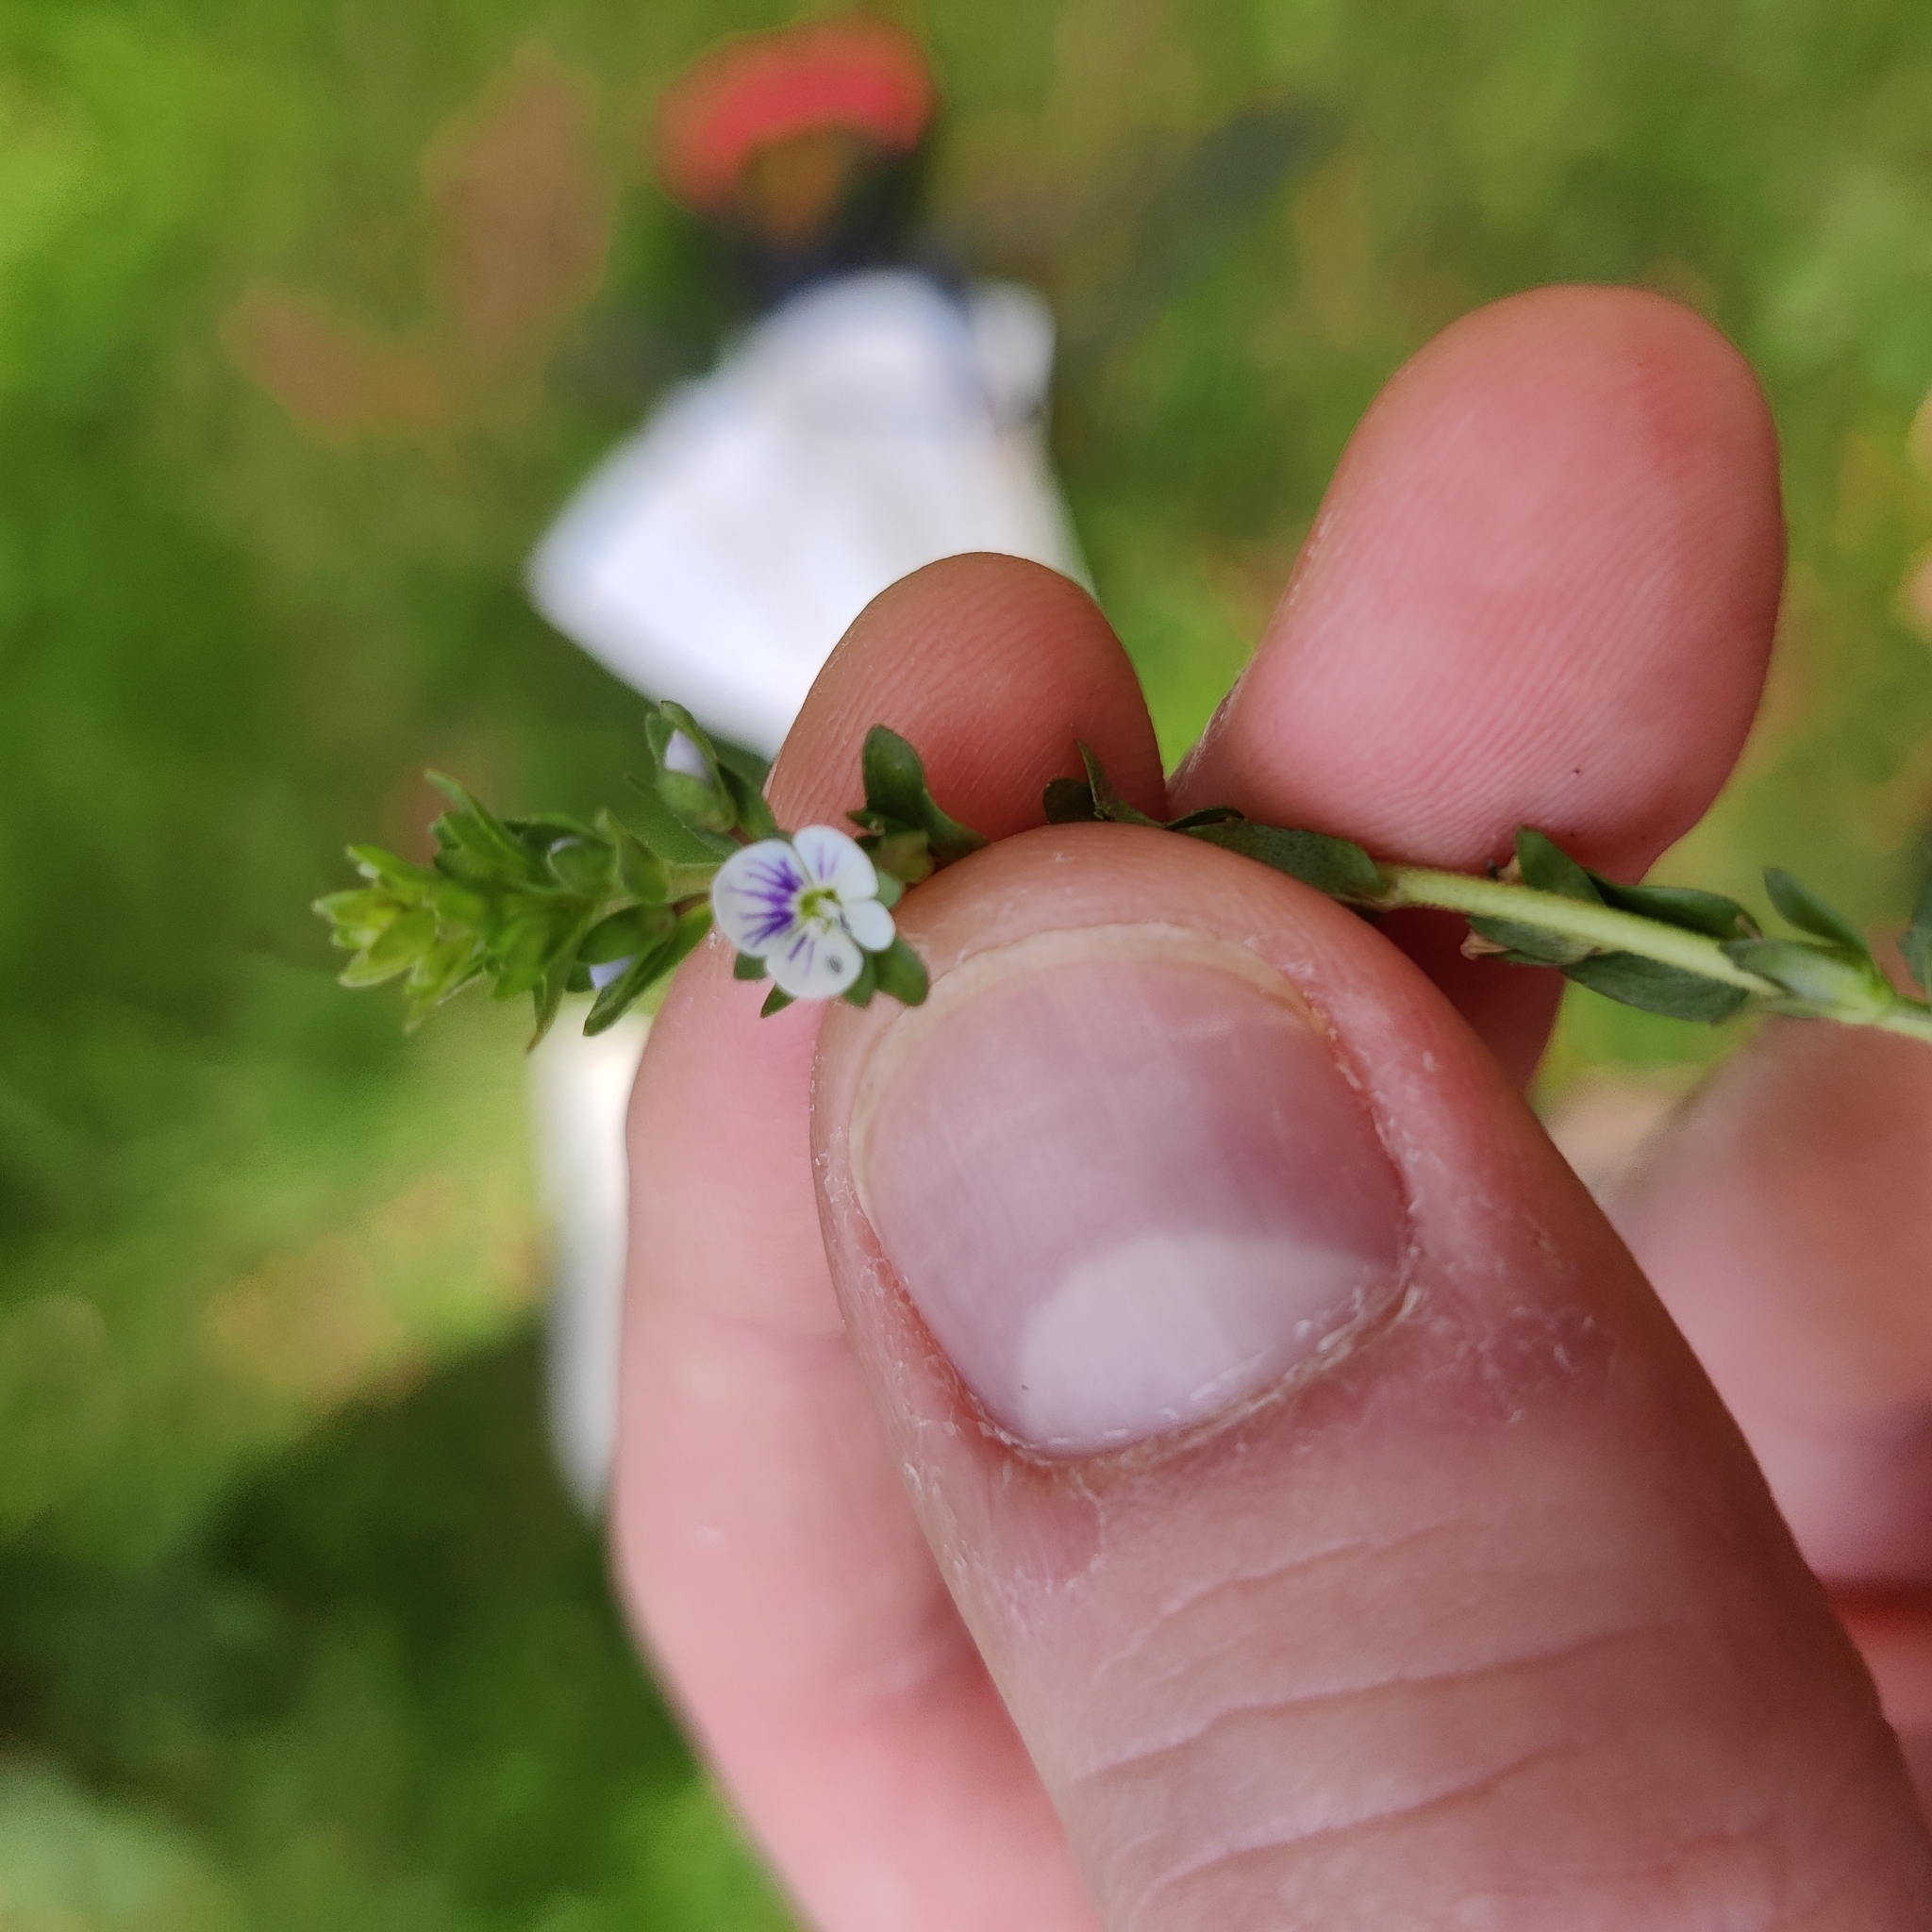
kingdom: Plantae
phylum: Tracheophyta
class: Magnoliopsida
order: Lamiales
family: Plantaginaceae
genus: Veronica
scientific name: Veronica serpyllifolia
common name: Thyme-leaved speedwell
